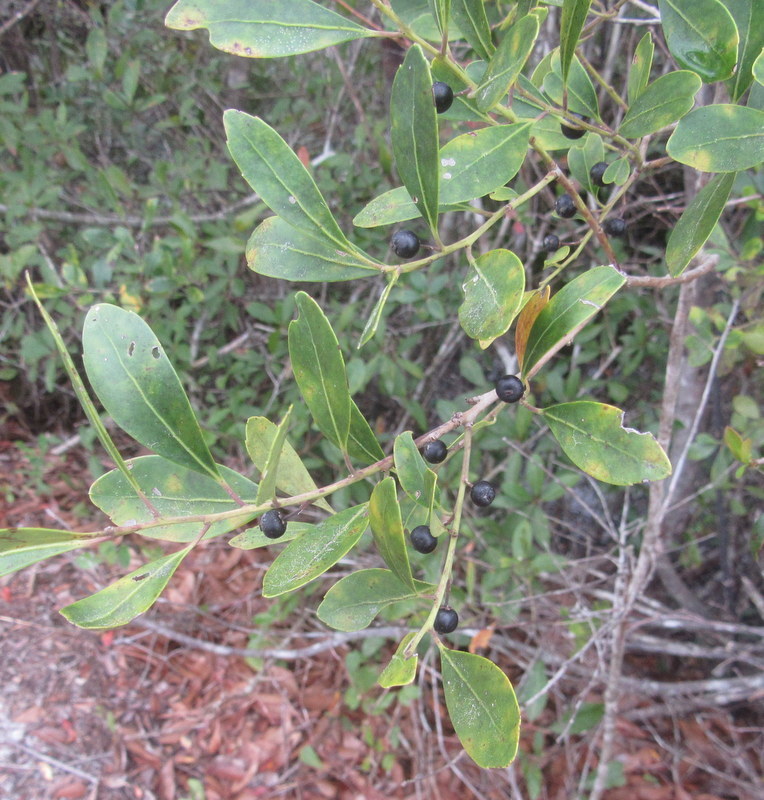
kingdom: Plantae
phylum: Tracheophyta
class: Magnoliopsida
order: Aquifoliales
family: Aquifoliaceae
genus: Ilex
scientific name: Ilex glabra
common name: Bitter gallberry
